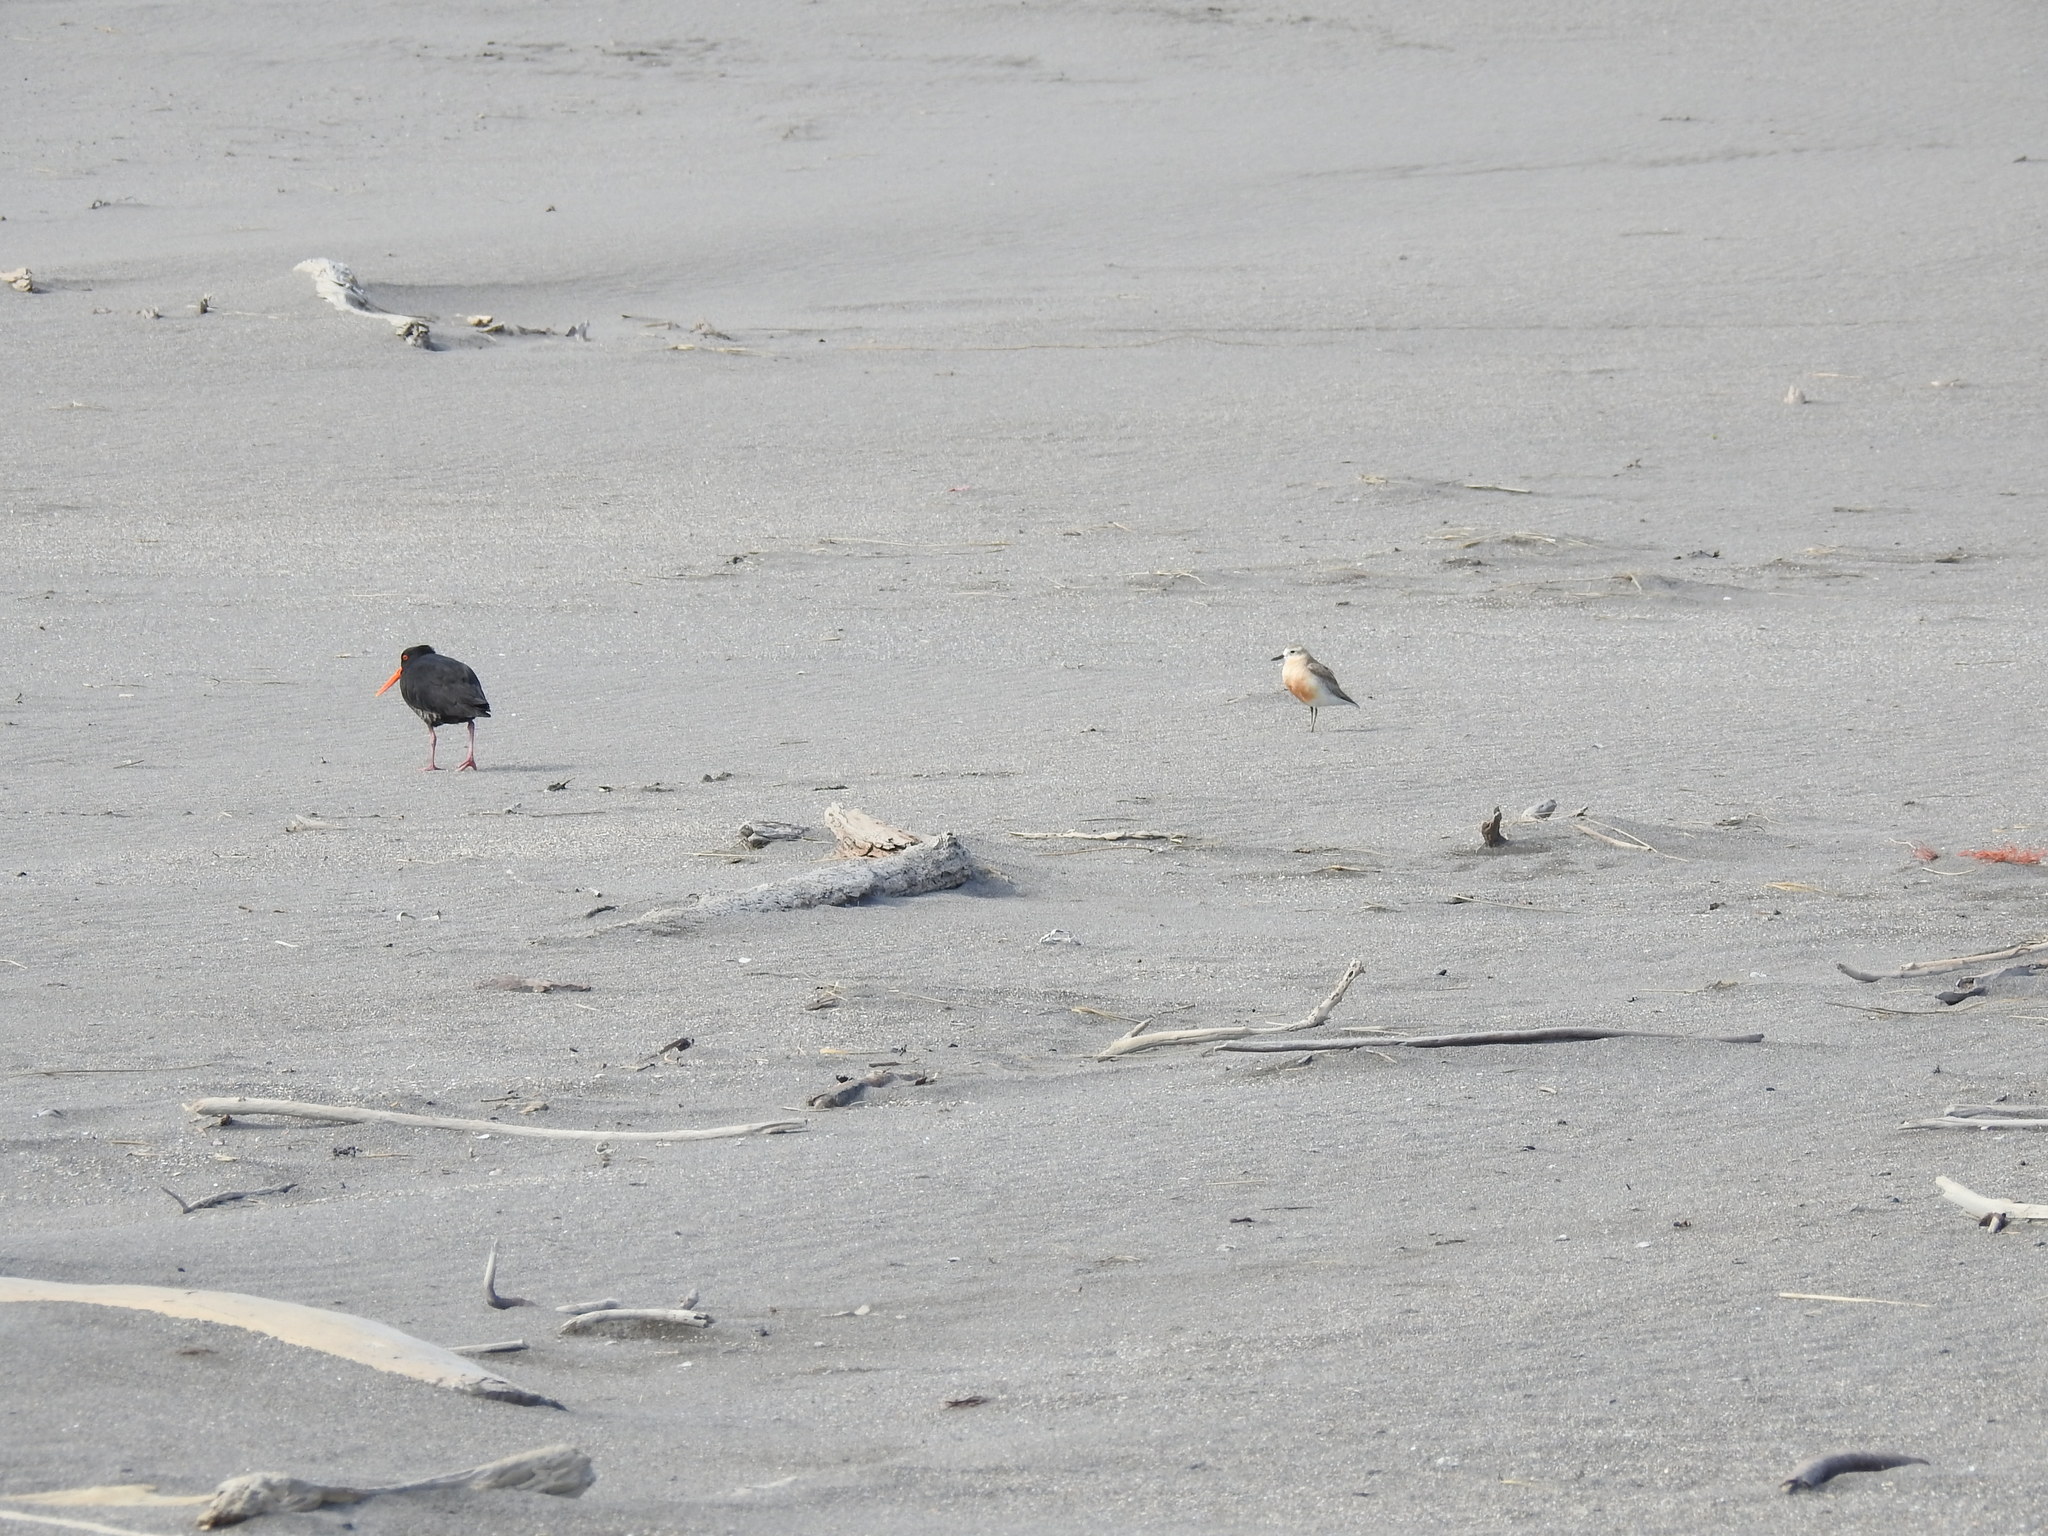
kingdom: Animalia
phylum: Chordata
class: Aves
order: Charadriiformes
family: Haematopodidae
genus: Haematopus
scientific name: Haematopus unicolor
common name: Variable oystercatcher
